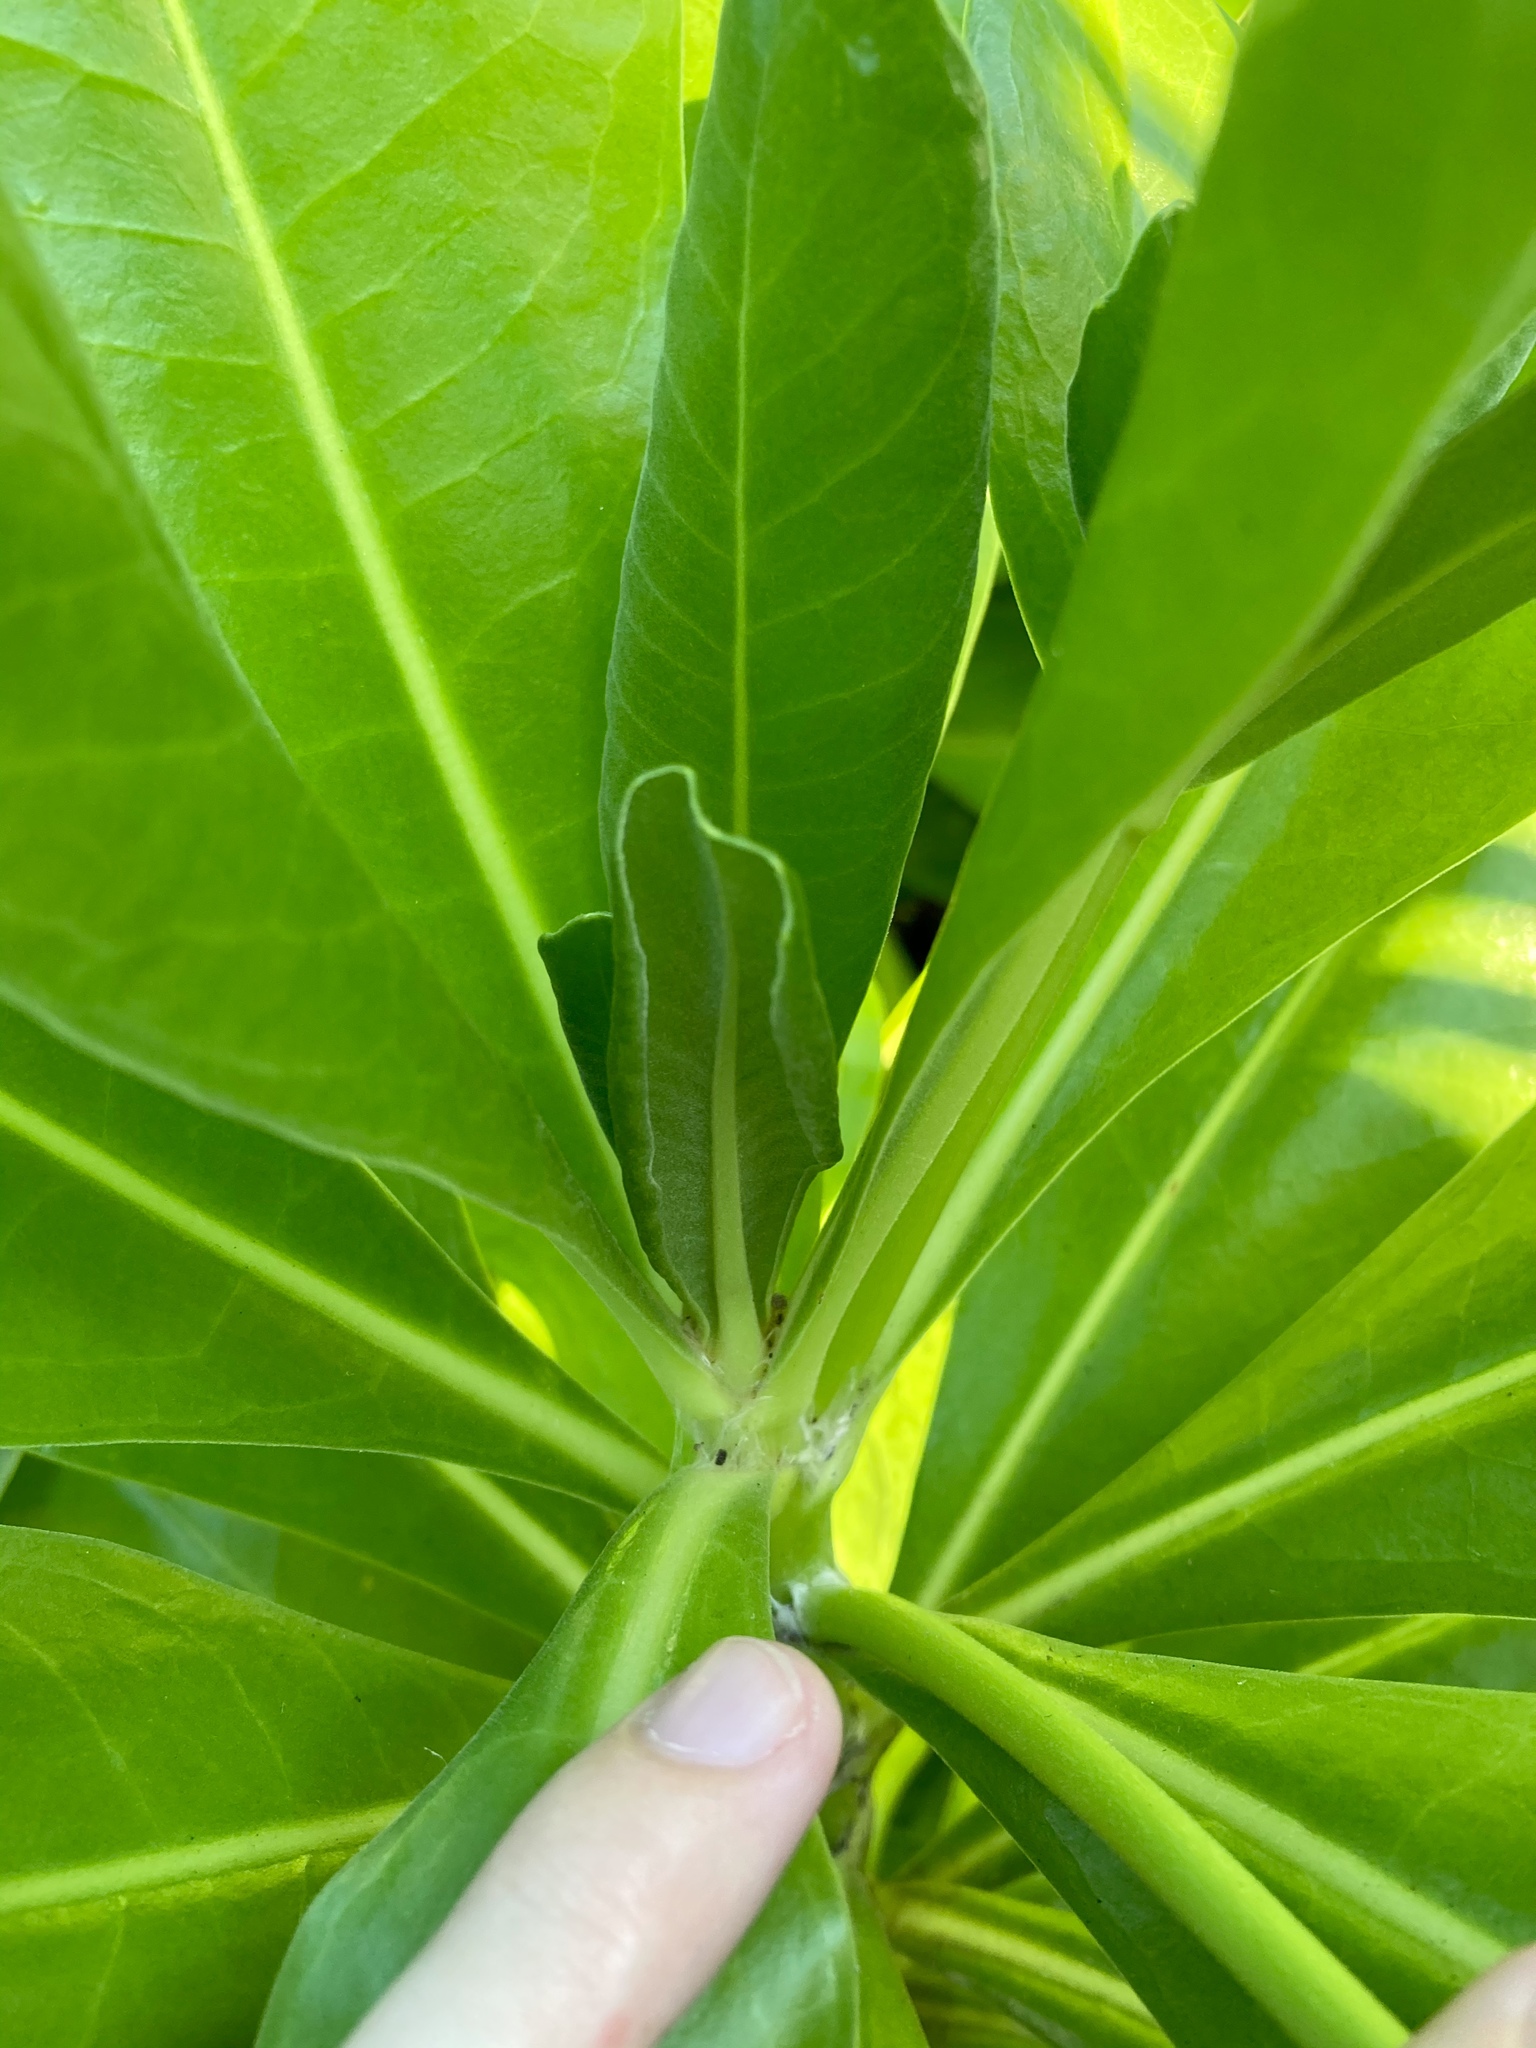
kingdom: Plantae
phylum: Tracheophyta
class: Magnoliopsida
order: Asterales
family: Goodeniaceae
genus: Scaevola
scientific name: Scaevola taccada
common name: Sea lettucetree
